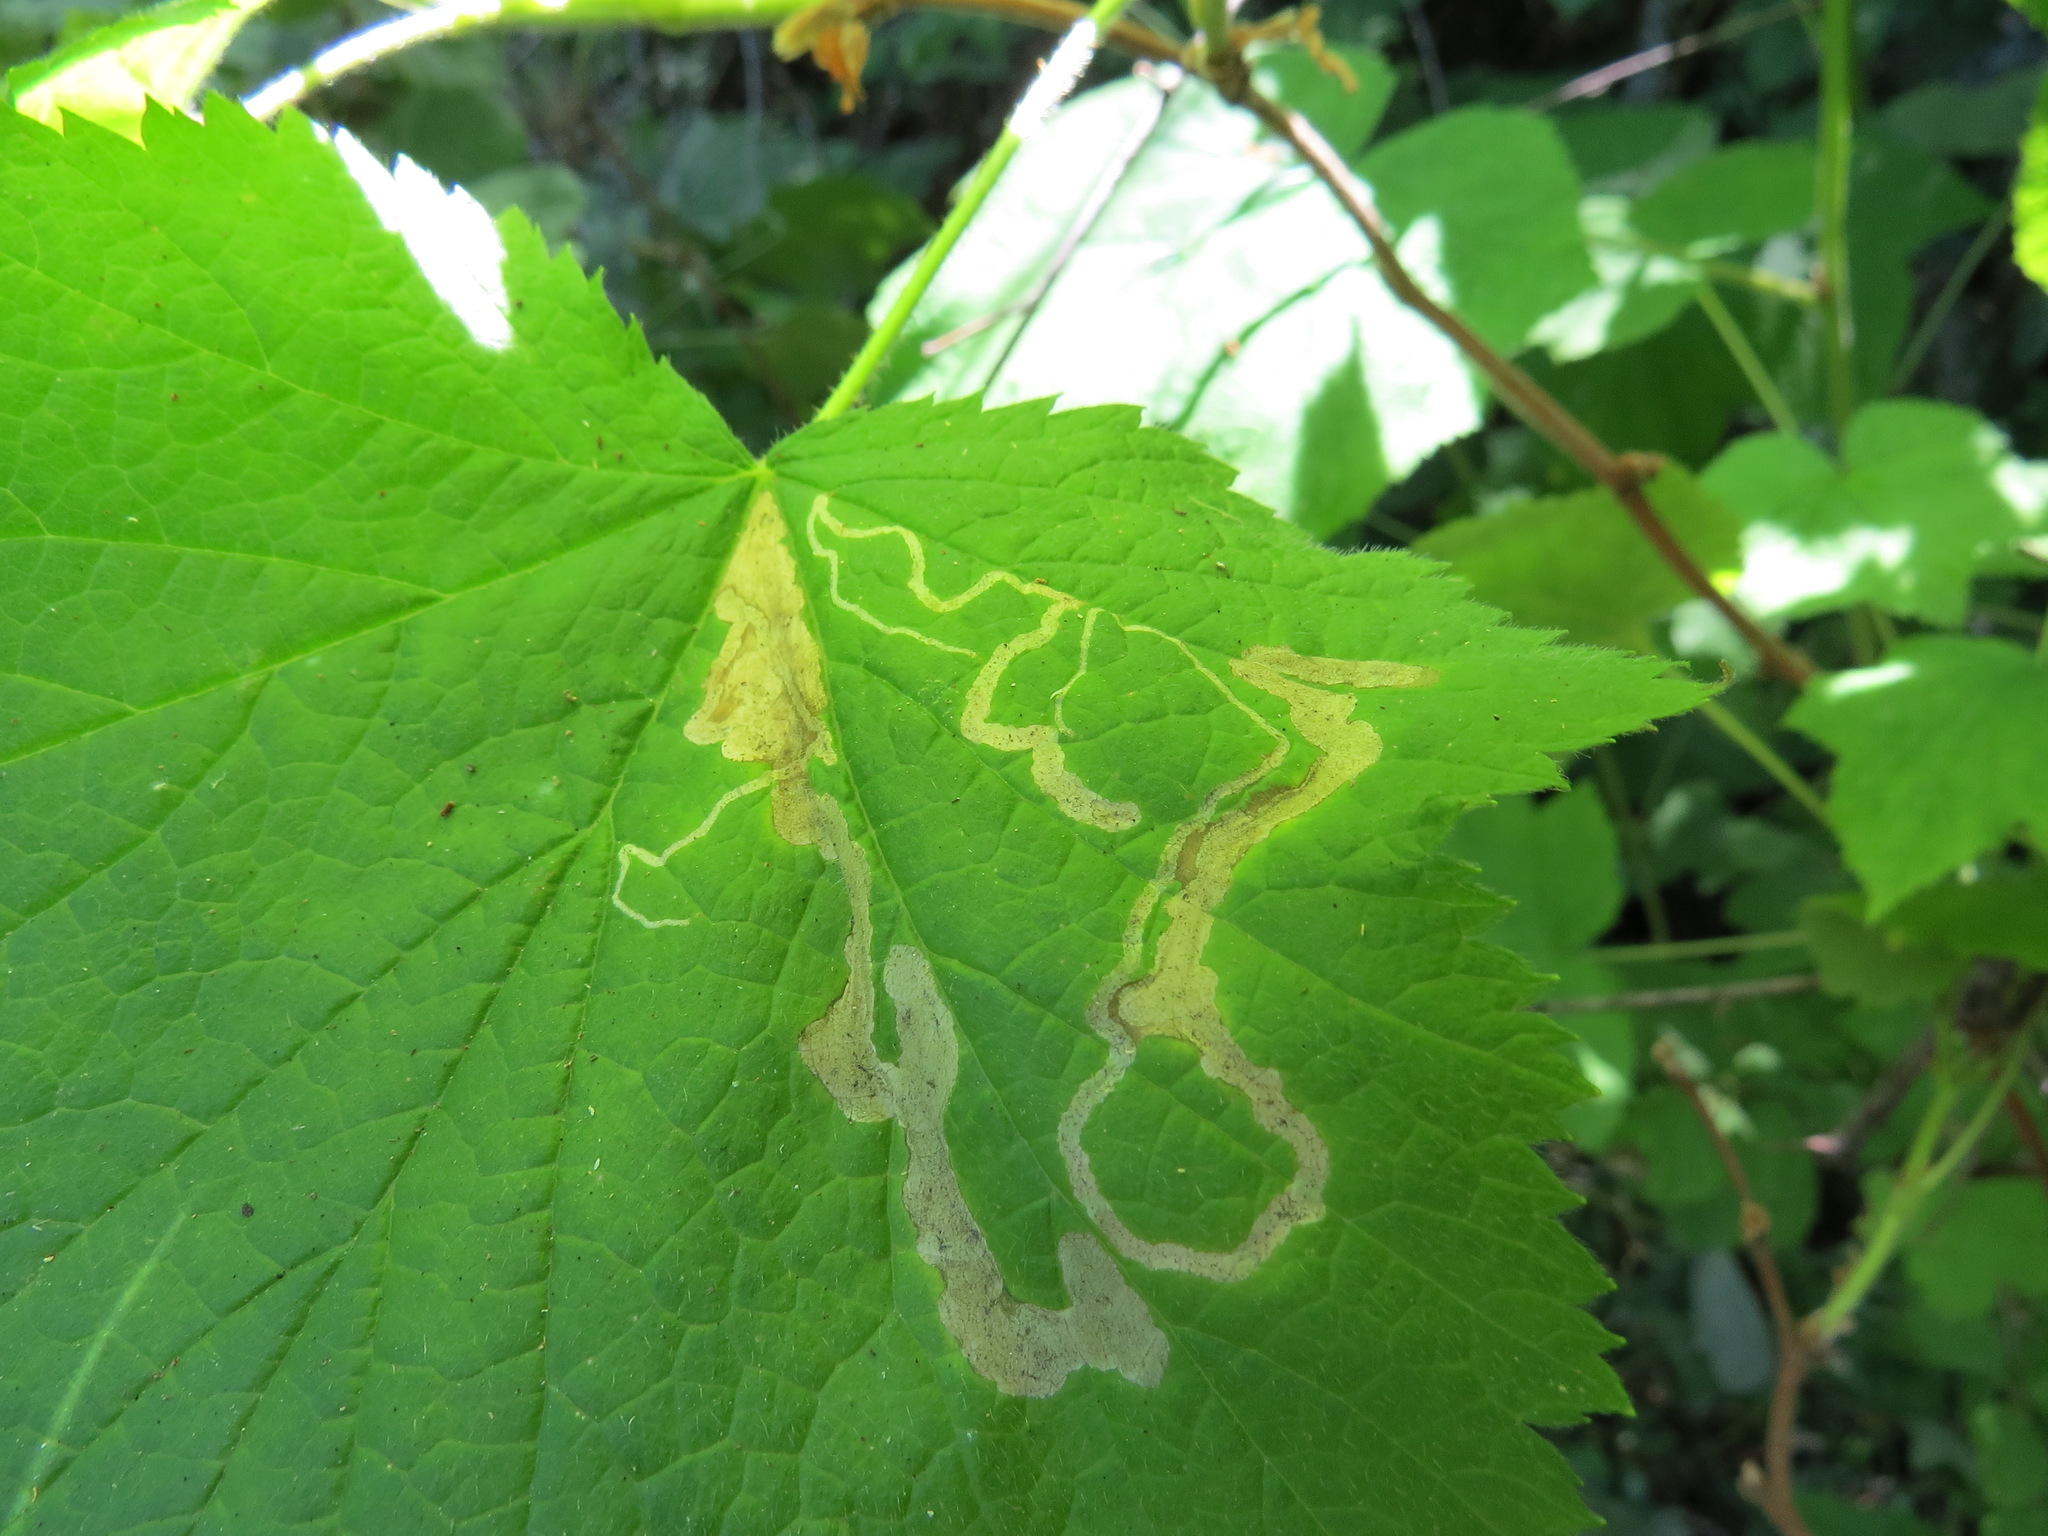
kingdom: Animalia
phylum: Arthropoda
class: Insecta
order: Diptera
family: Agromyzidae
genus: Agromyza
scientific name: Agromyza vockerothi
